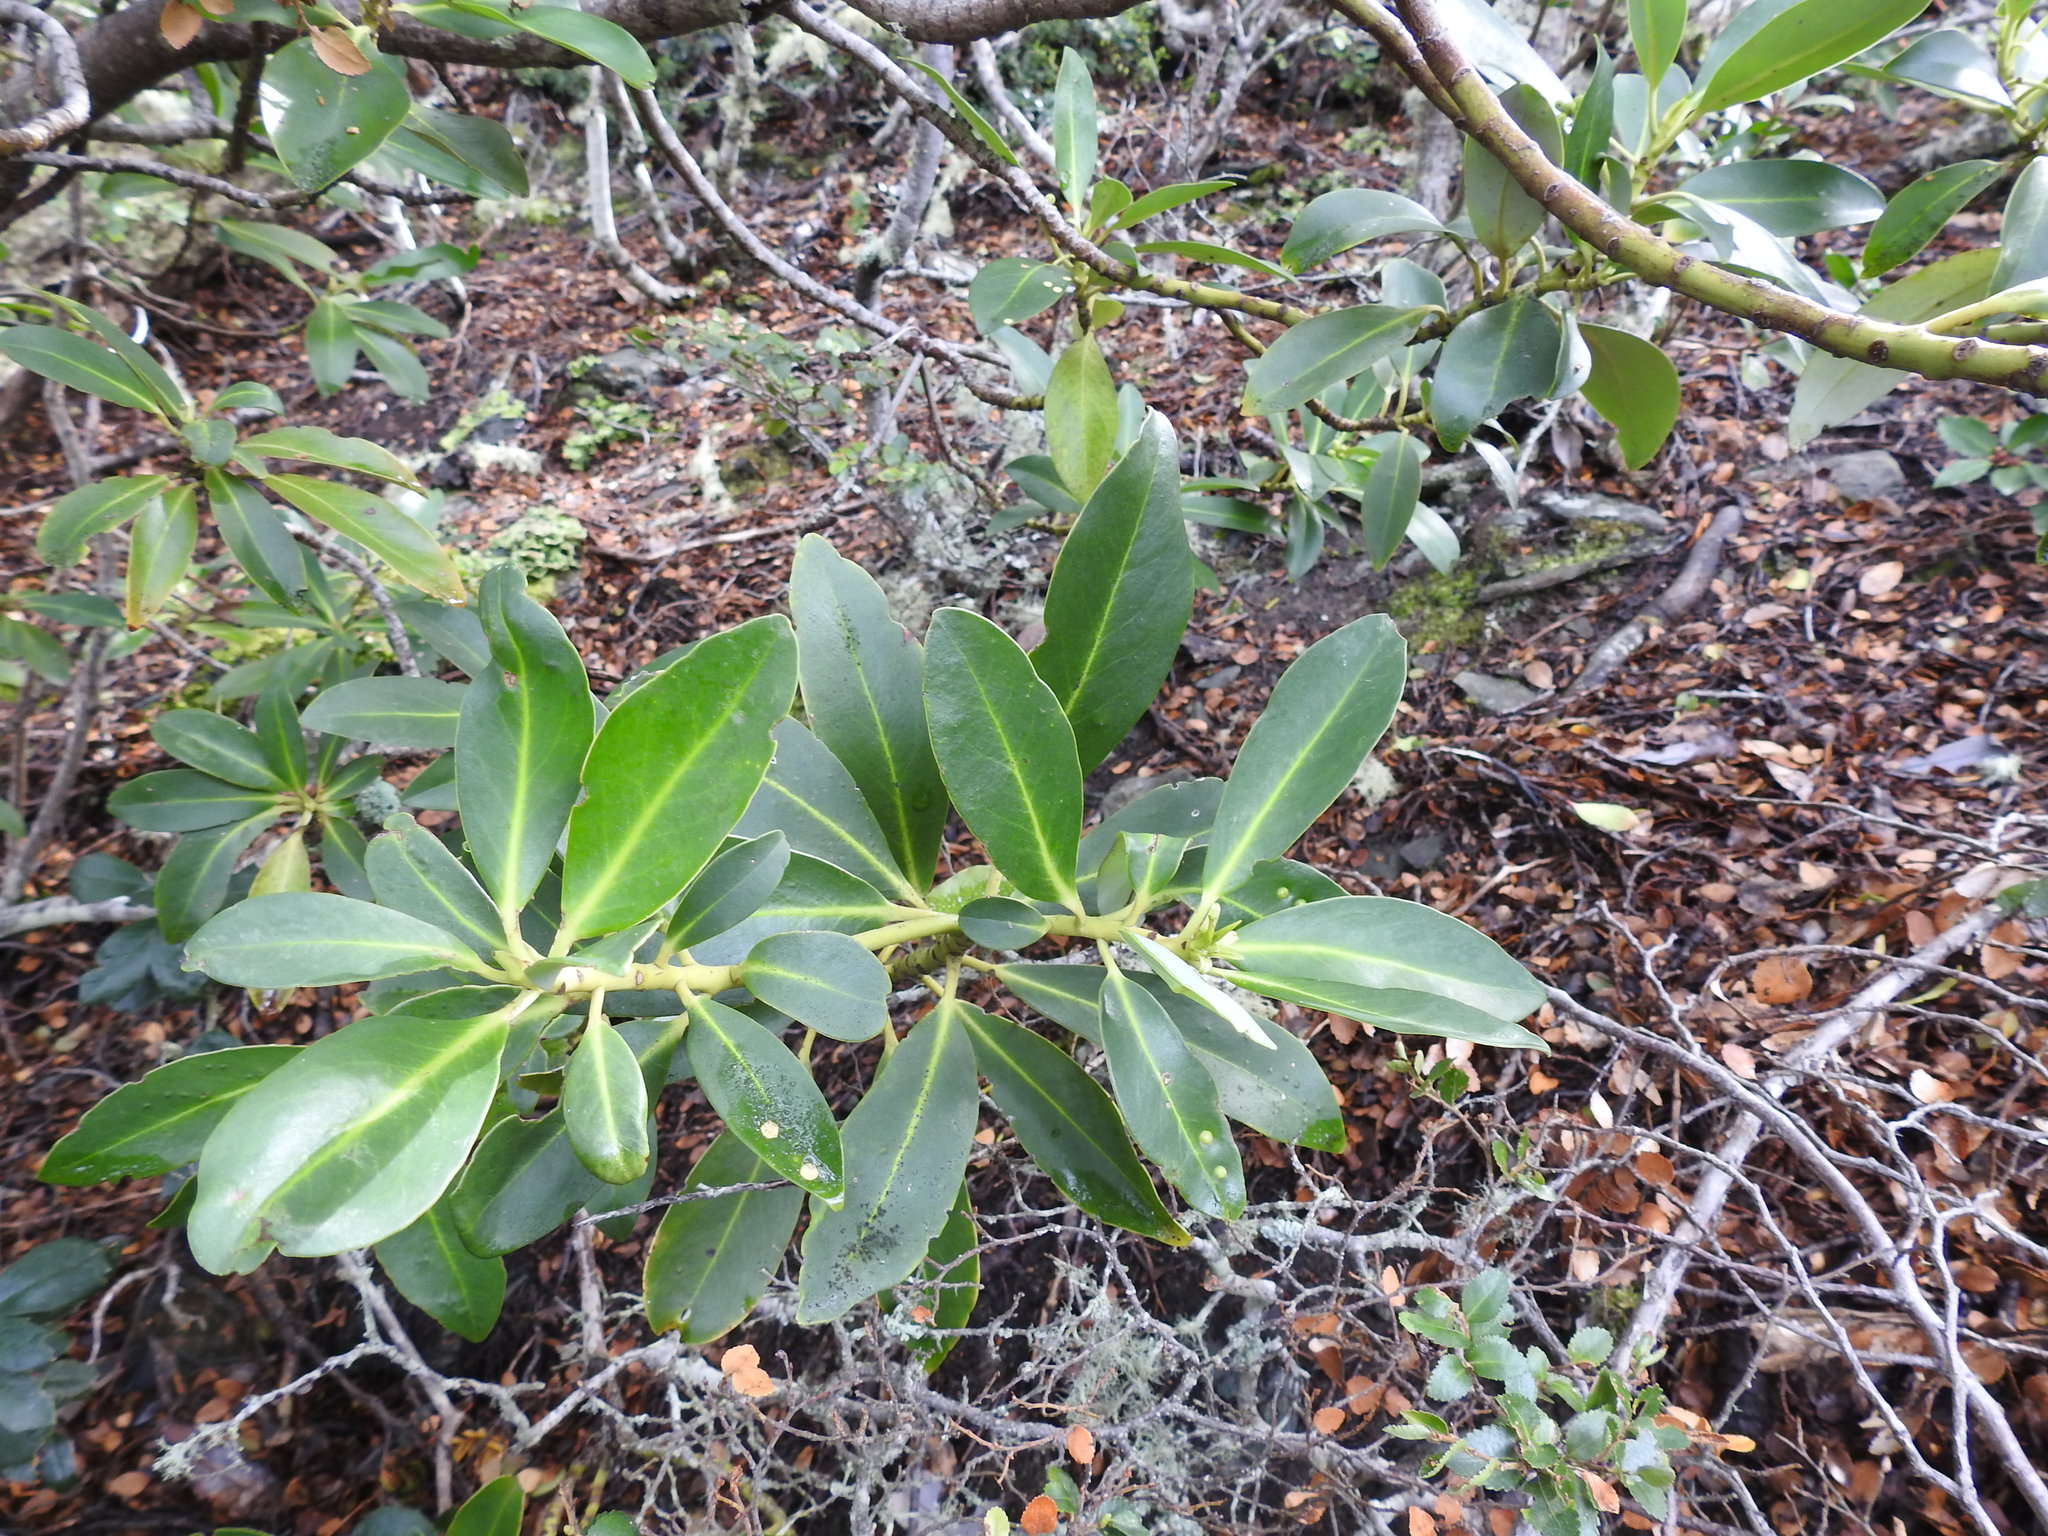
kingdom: Plantae
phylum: Tracheophyta
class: Magnoliopsida
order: Canellales
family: Winteraceae
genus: Drimys
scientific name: Drimys winteri
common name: Winter's-bark
